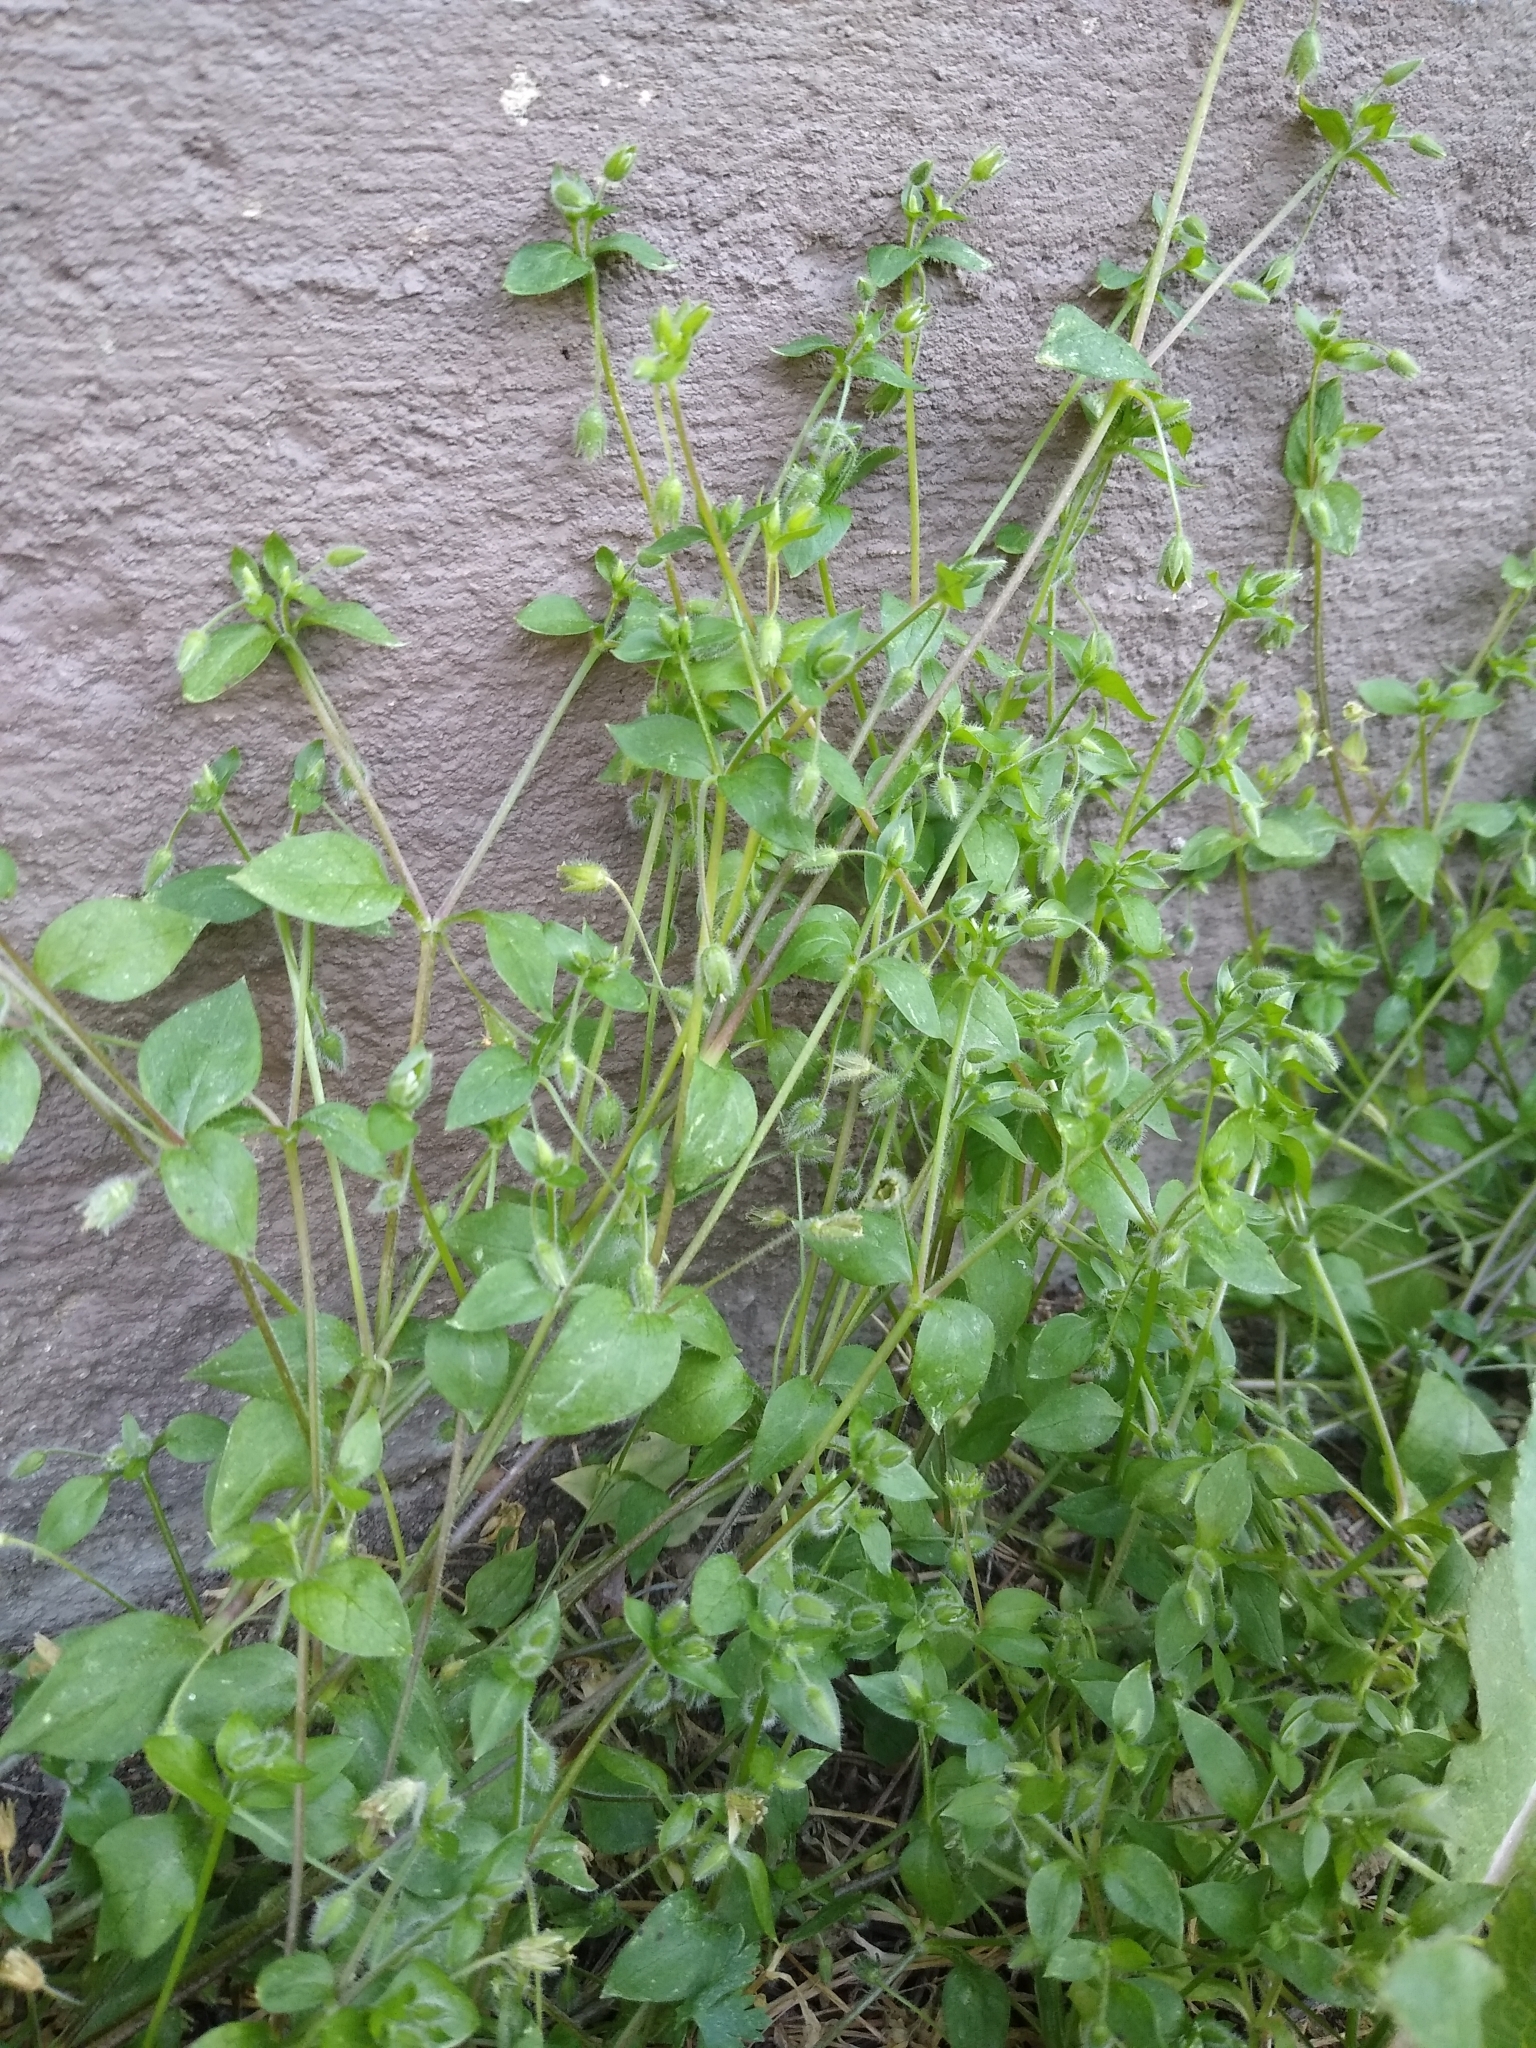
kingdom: Plantae
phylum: Tracheophyta
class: Magnoliopsida
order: Caryophyllales
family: Caryophyllaceae
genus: Stellaria
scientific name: Stellaria media
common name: Common chickweed
